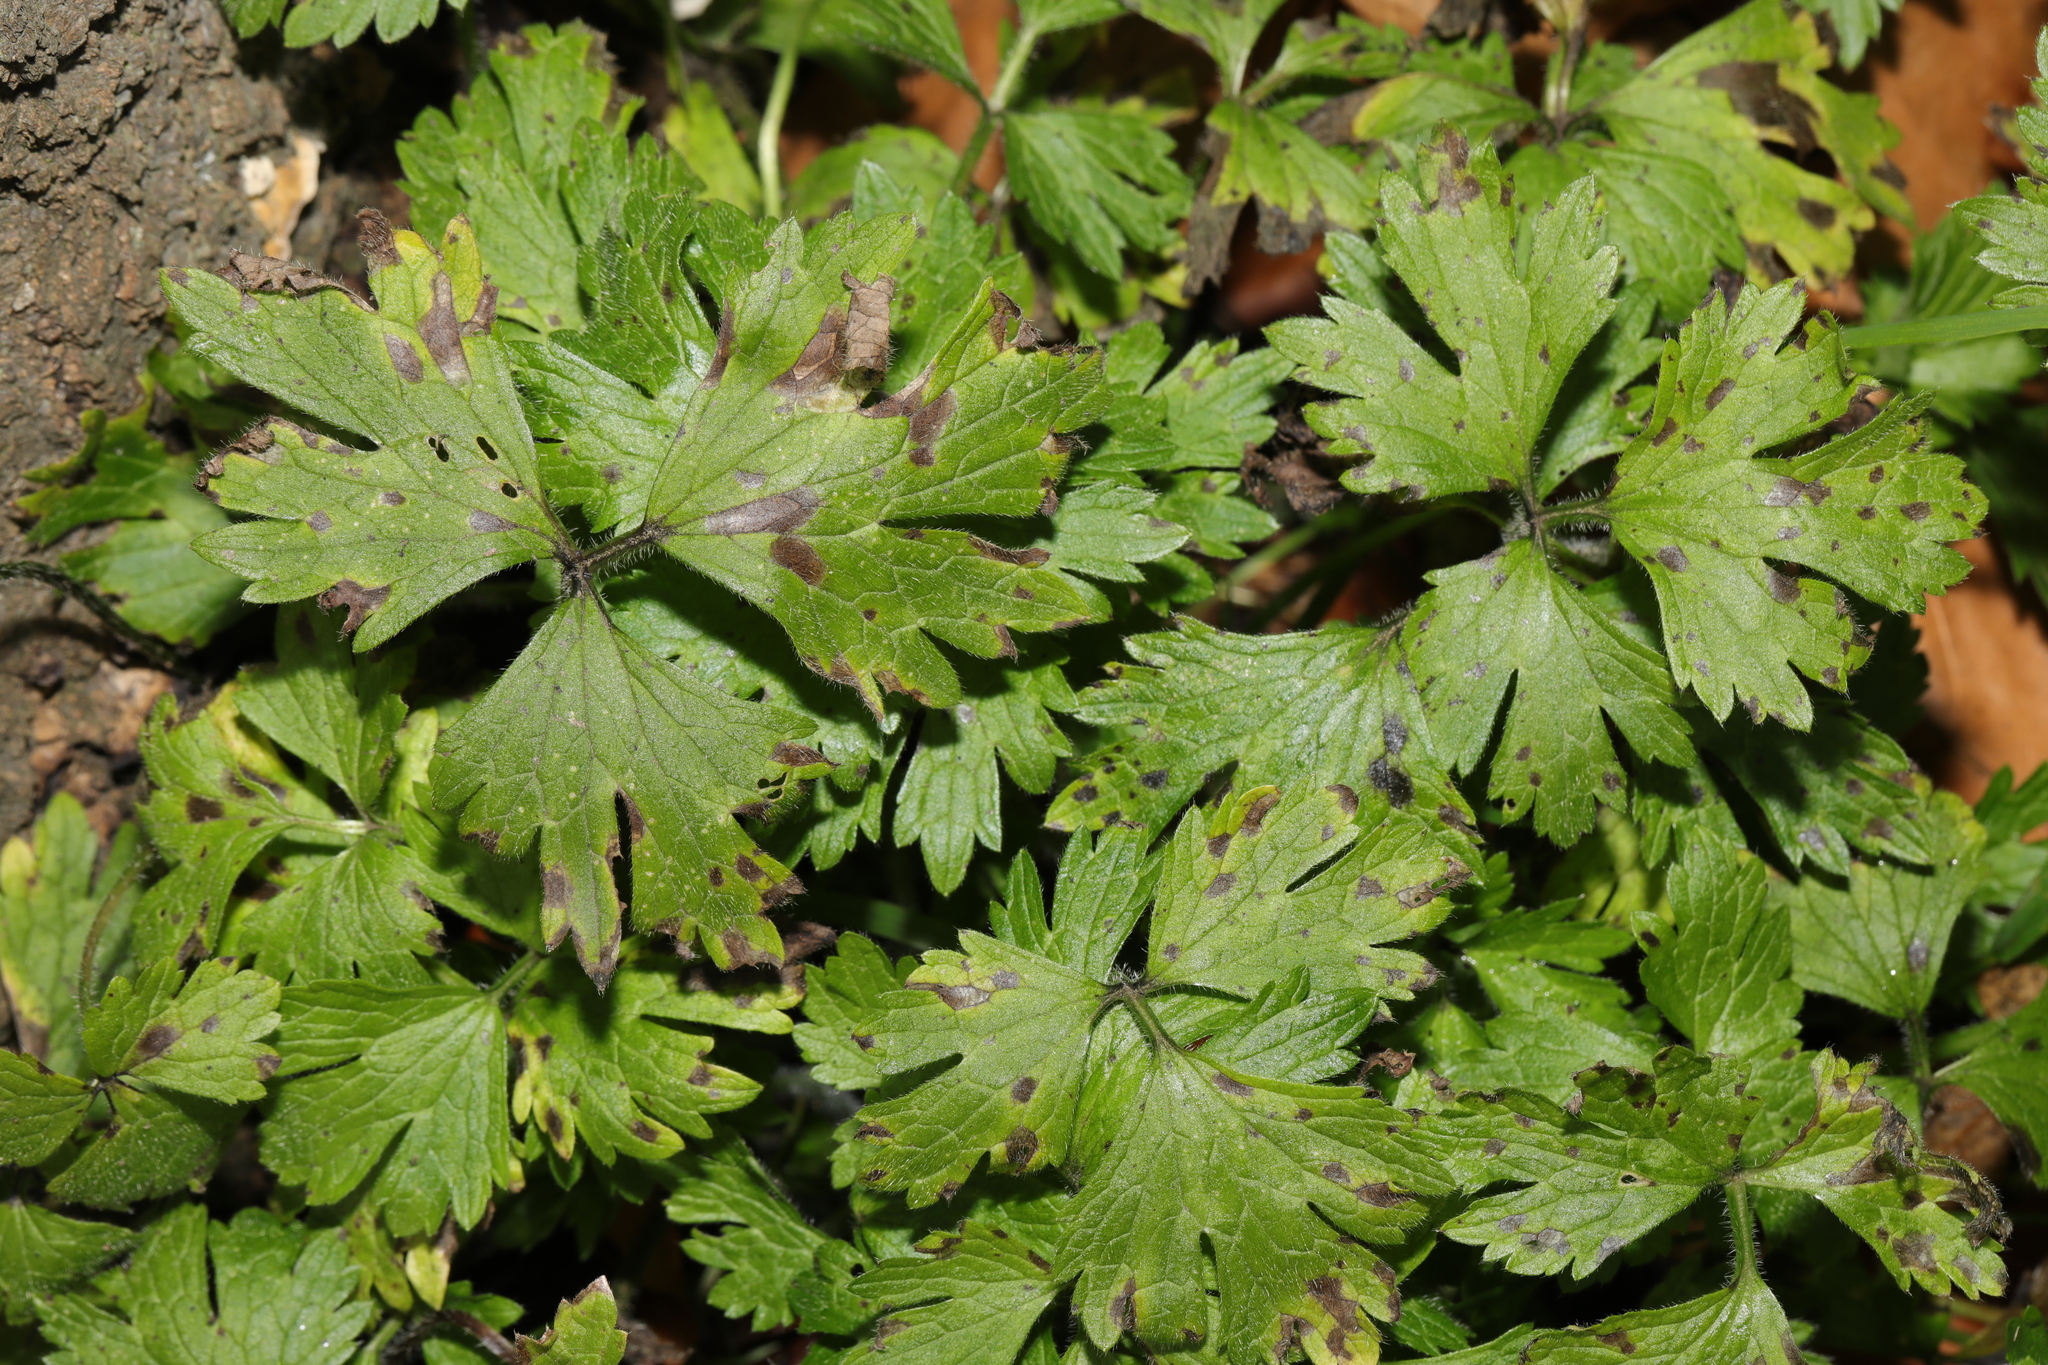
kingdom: Plantae
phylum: Tracheophyta
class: Magnoliopsida
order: Ranunculales
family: Ranunculaceae
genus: Ranunculus
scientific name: Ranunculus repens
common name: Creeping buttercup
